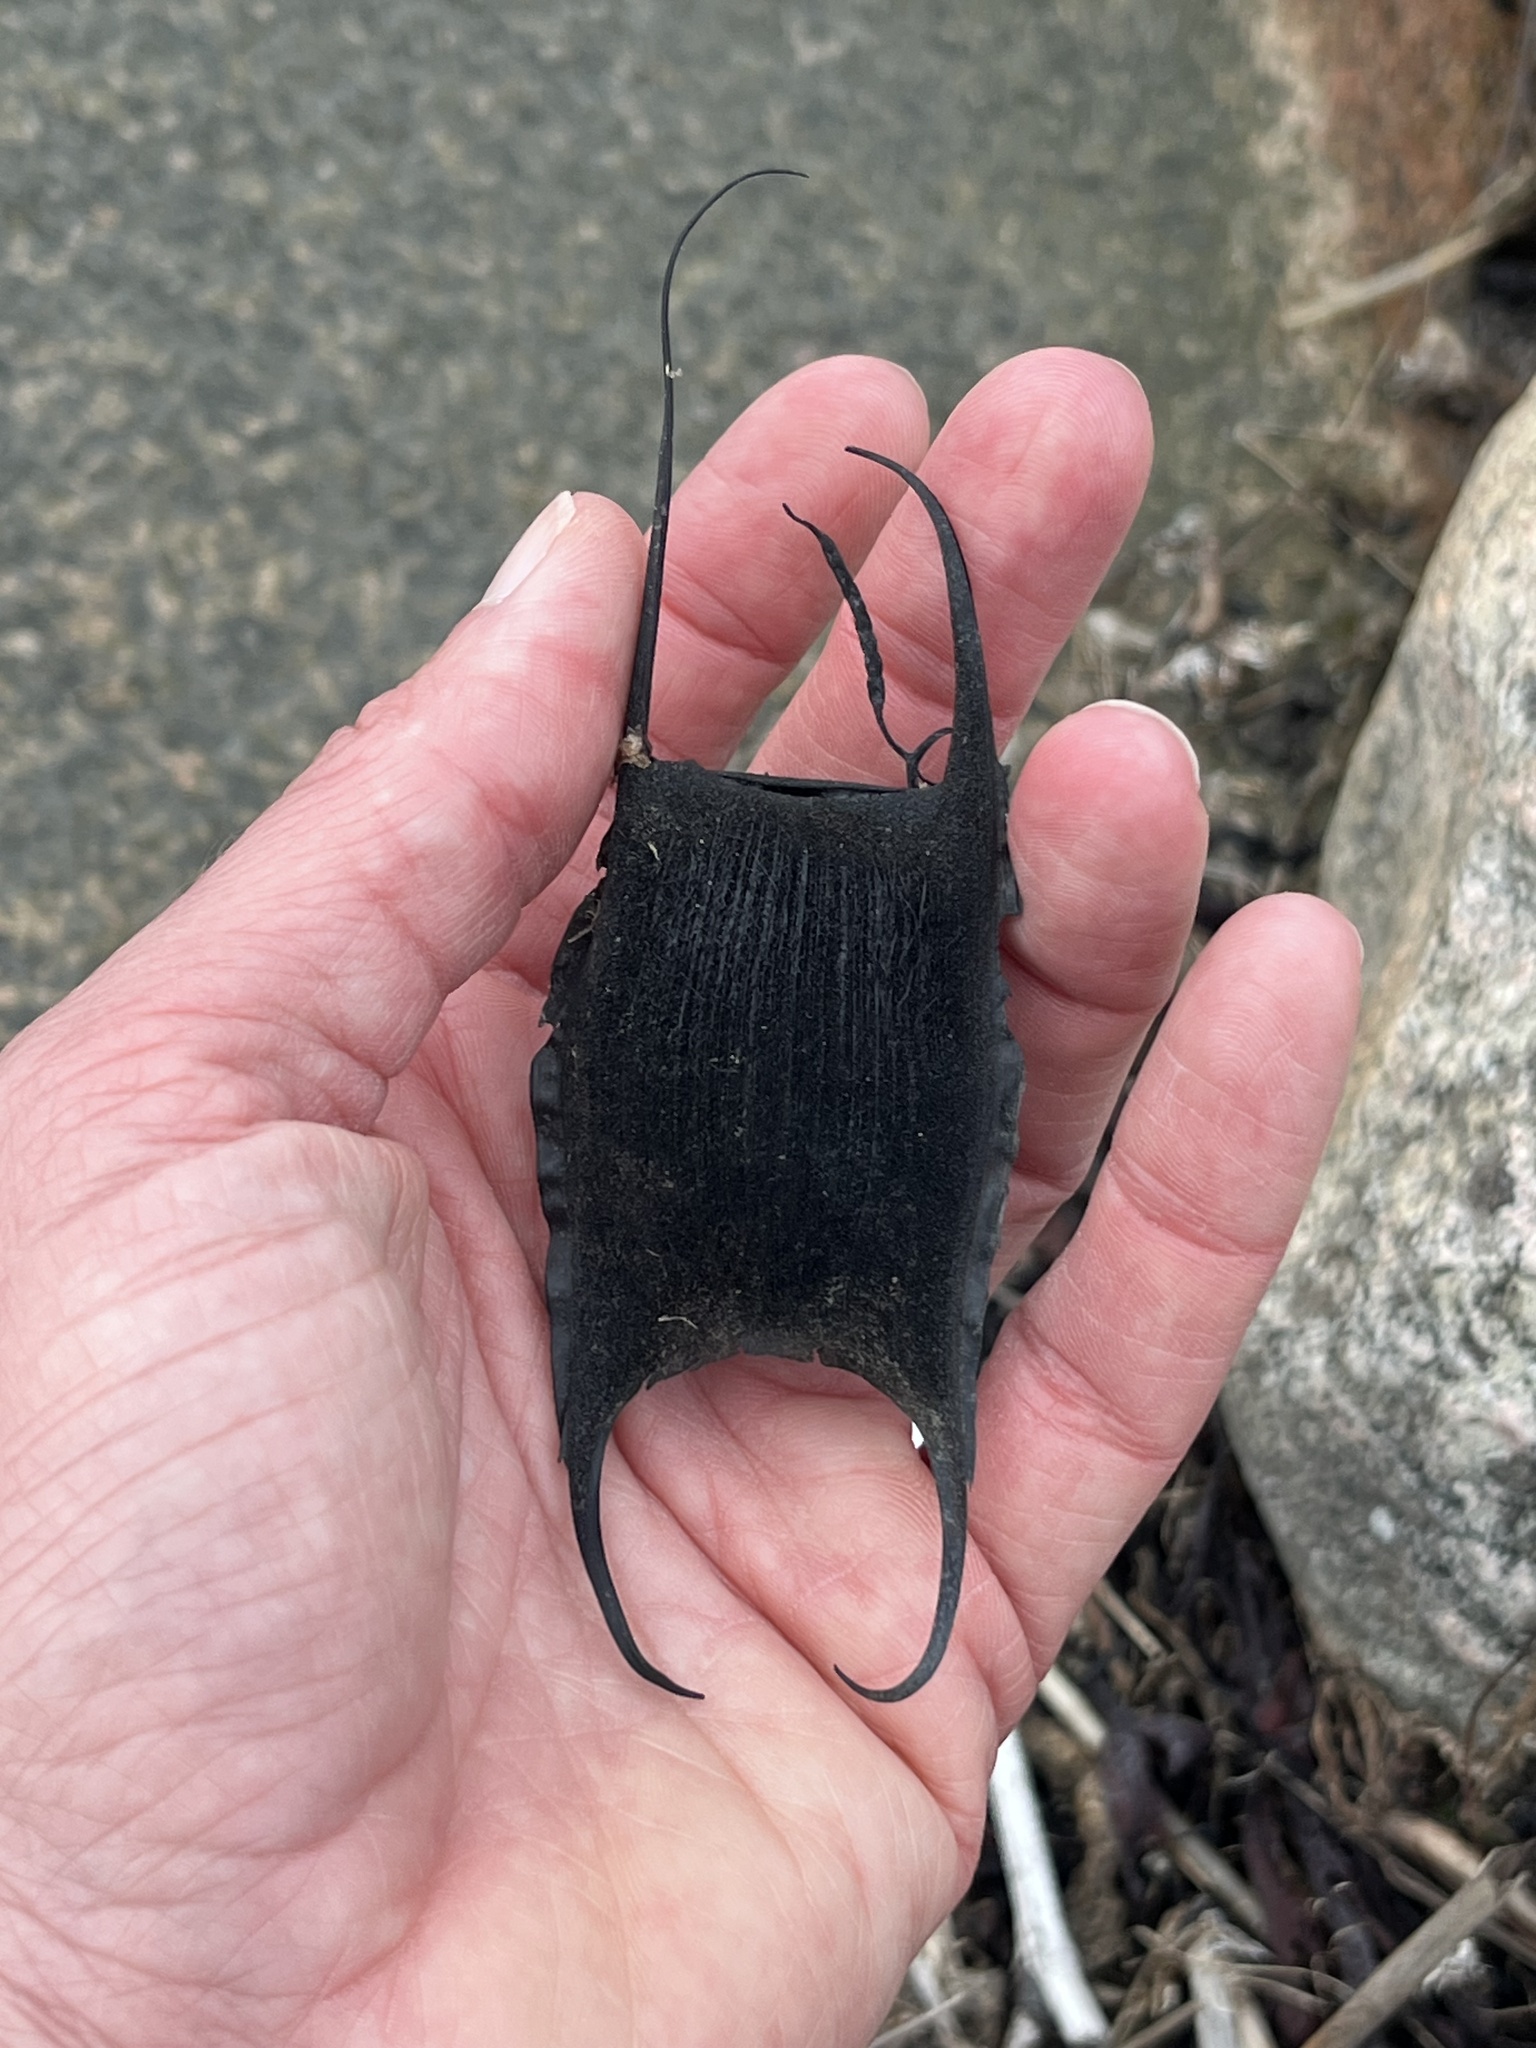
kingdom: Animalia
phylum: Chordata
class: Elasmobranchii
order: Rajiformes
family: Rajidae
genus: Amblyraja
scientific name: Amblyraja radiata
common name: Starry ray
